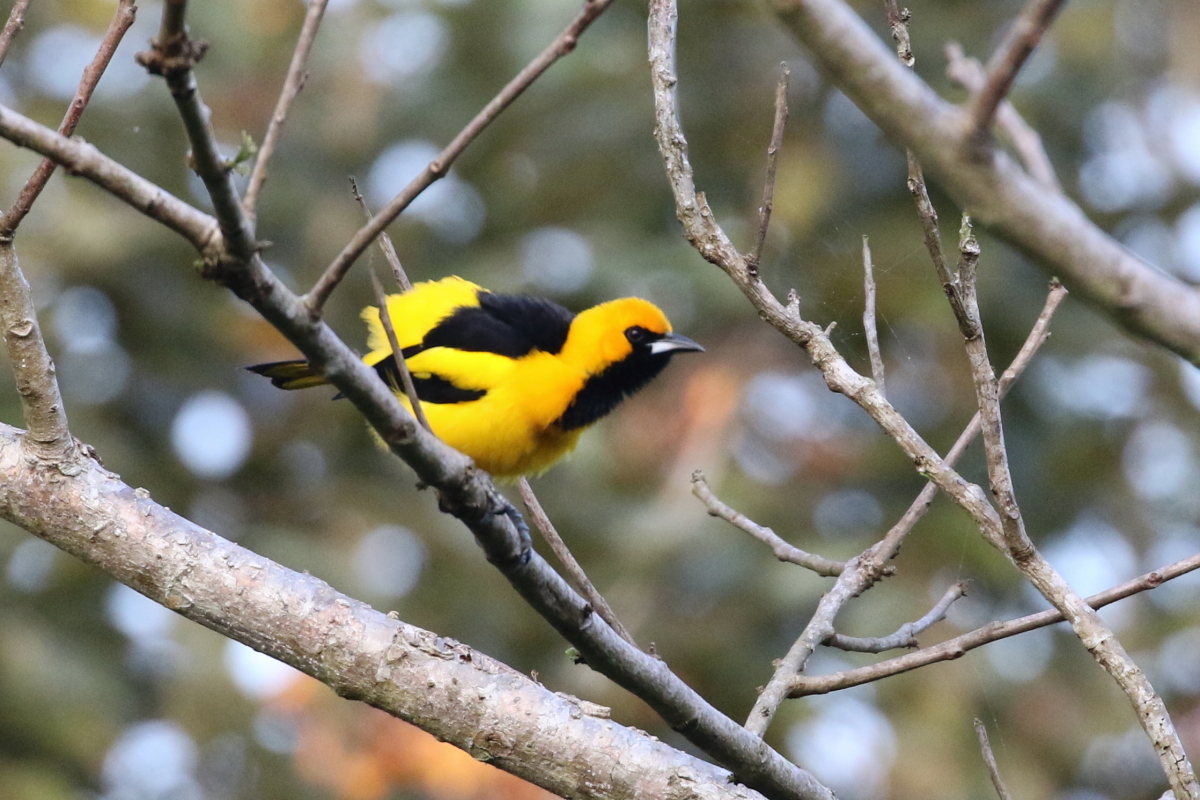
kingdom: Animalia
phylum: Chordata
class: Aves
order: Passeriformes
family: Icteridae
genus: Icterus
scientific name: Icterus mesomelas
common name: Yellow-tailed oriole
